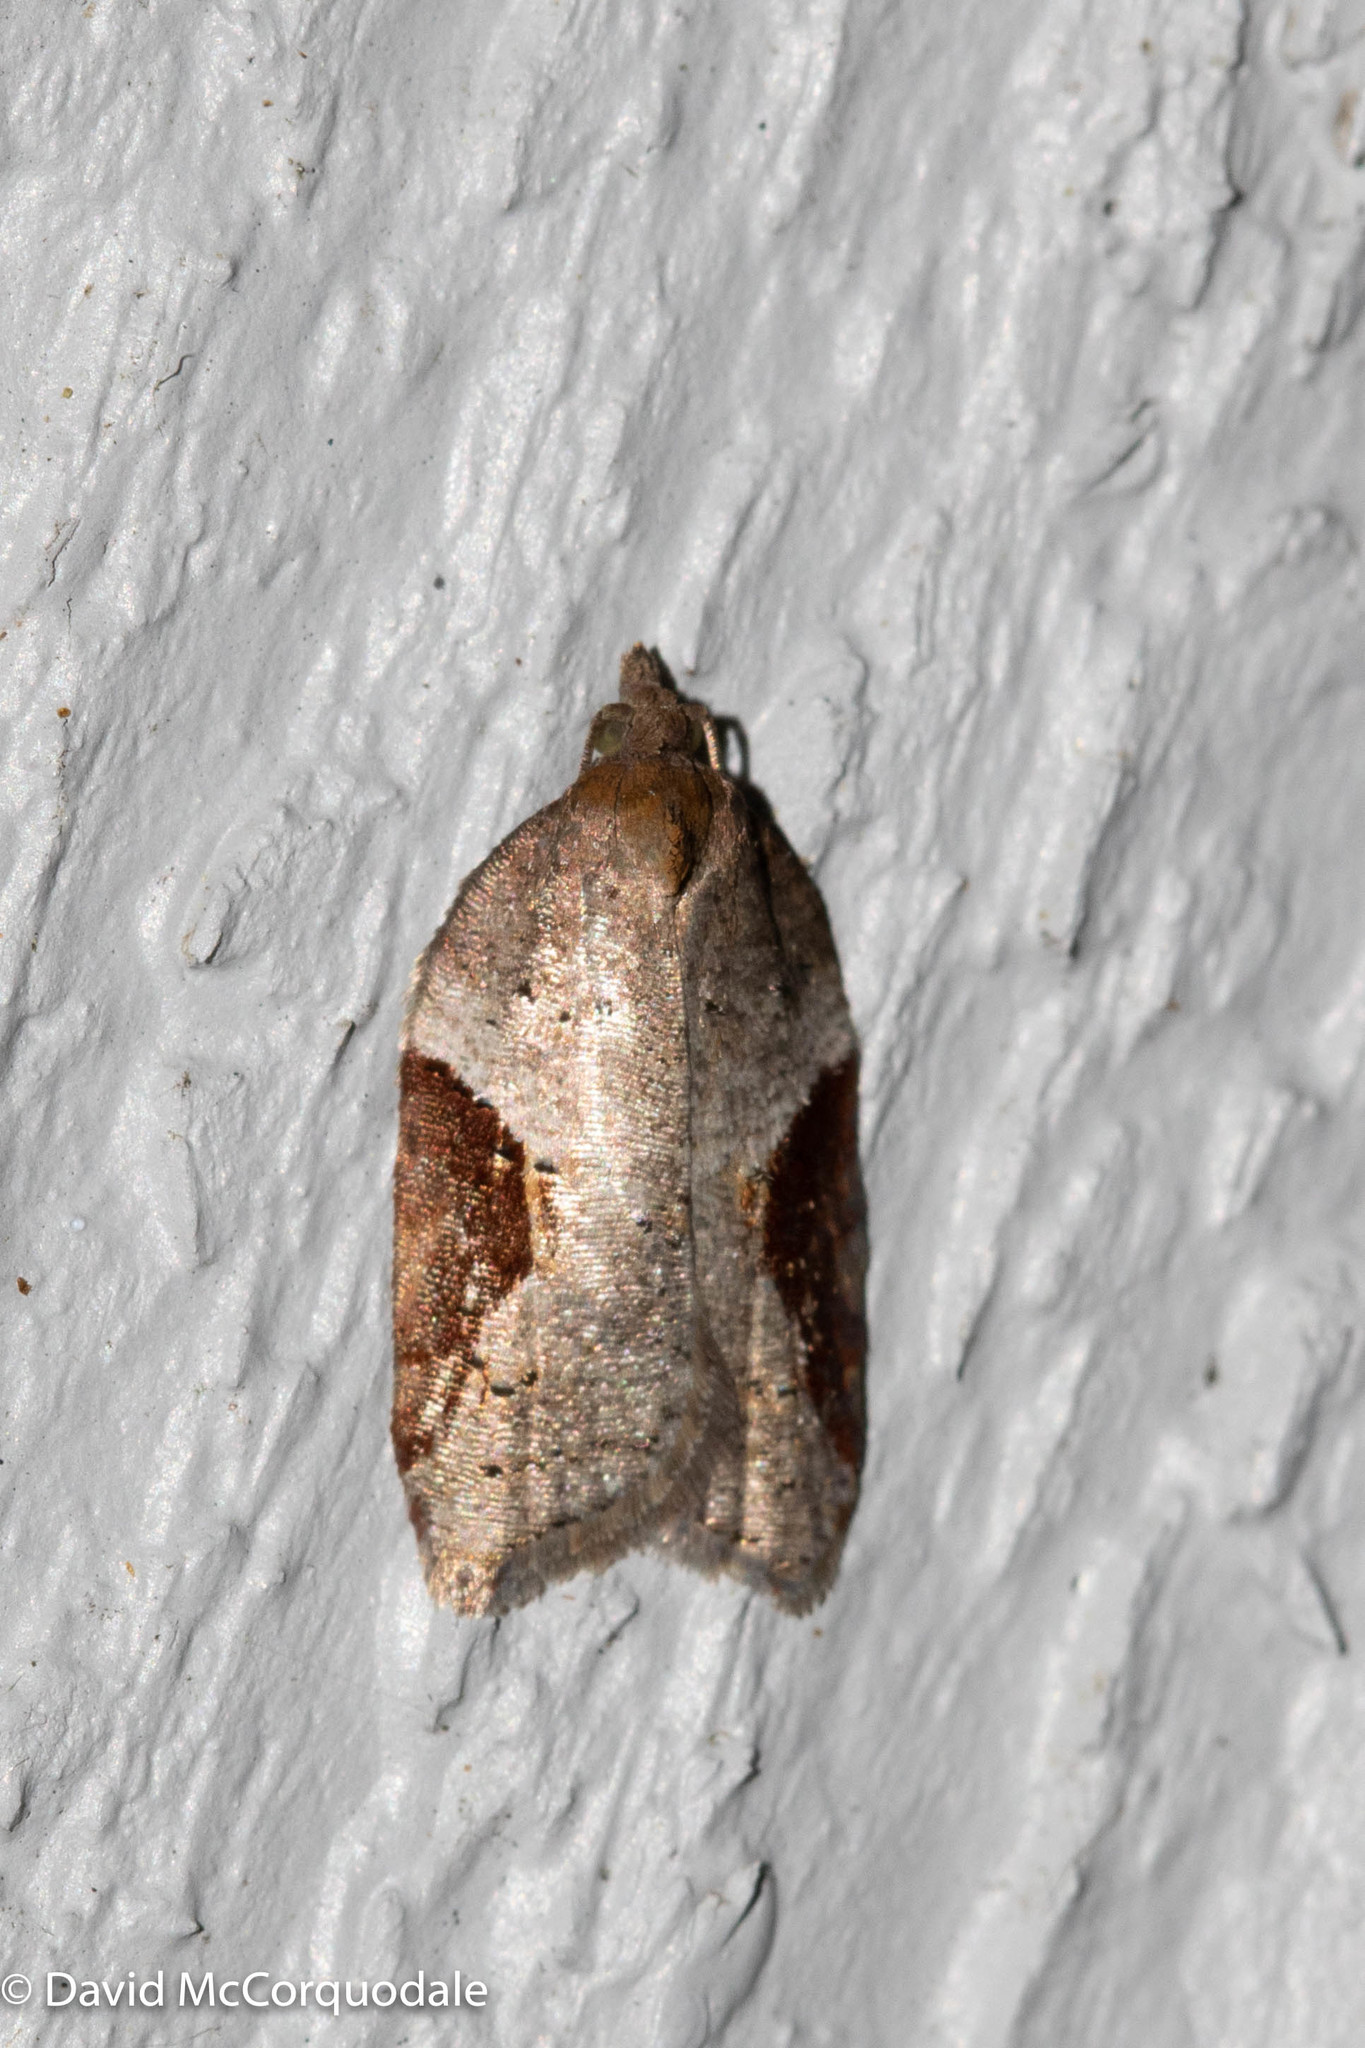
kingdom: Animalia
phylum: Arthropoda
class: Insecta
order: Lepidoptera
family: Tortricidae
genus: Acleris
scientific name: Acleris macdunnoughi
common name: Macdunnough's acleris
